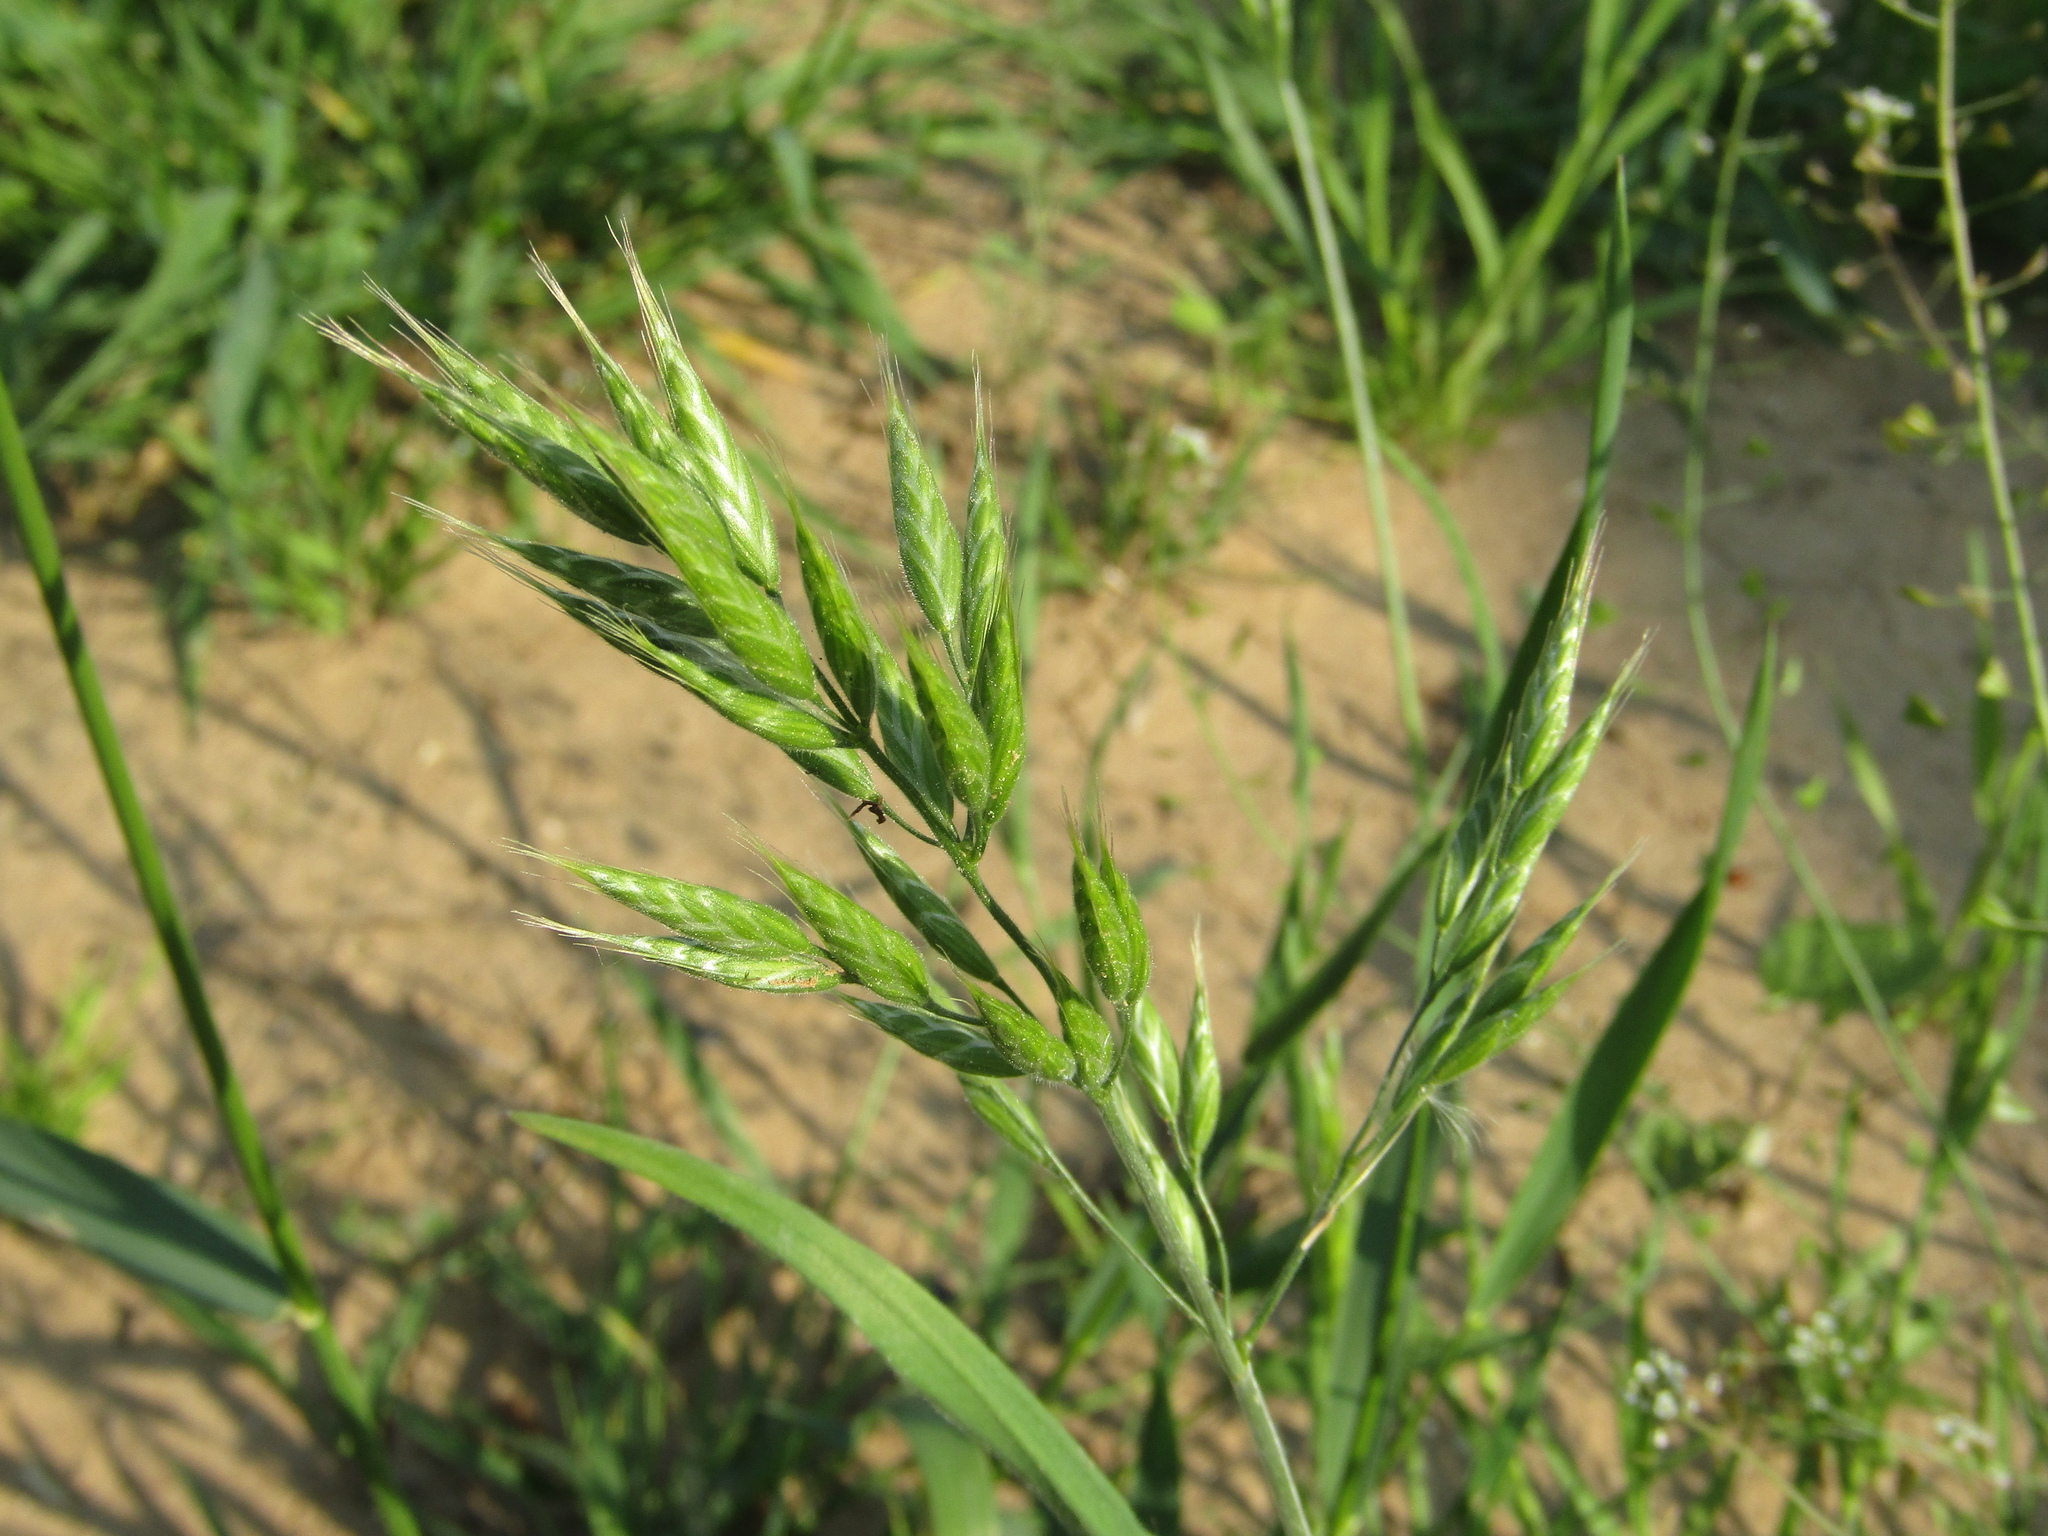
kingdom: Plantae
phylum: Tracheophyta
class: Liliopsida
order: Poales
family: Poaceae
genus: Bromus
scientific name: Bromus hordeaceus
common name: Soft brome
